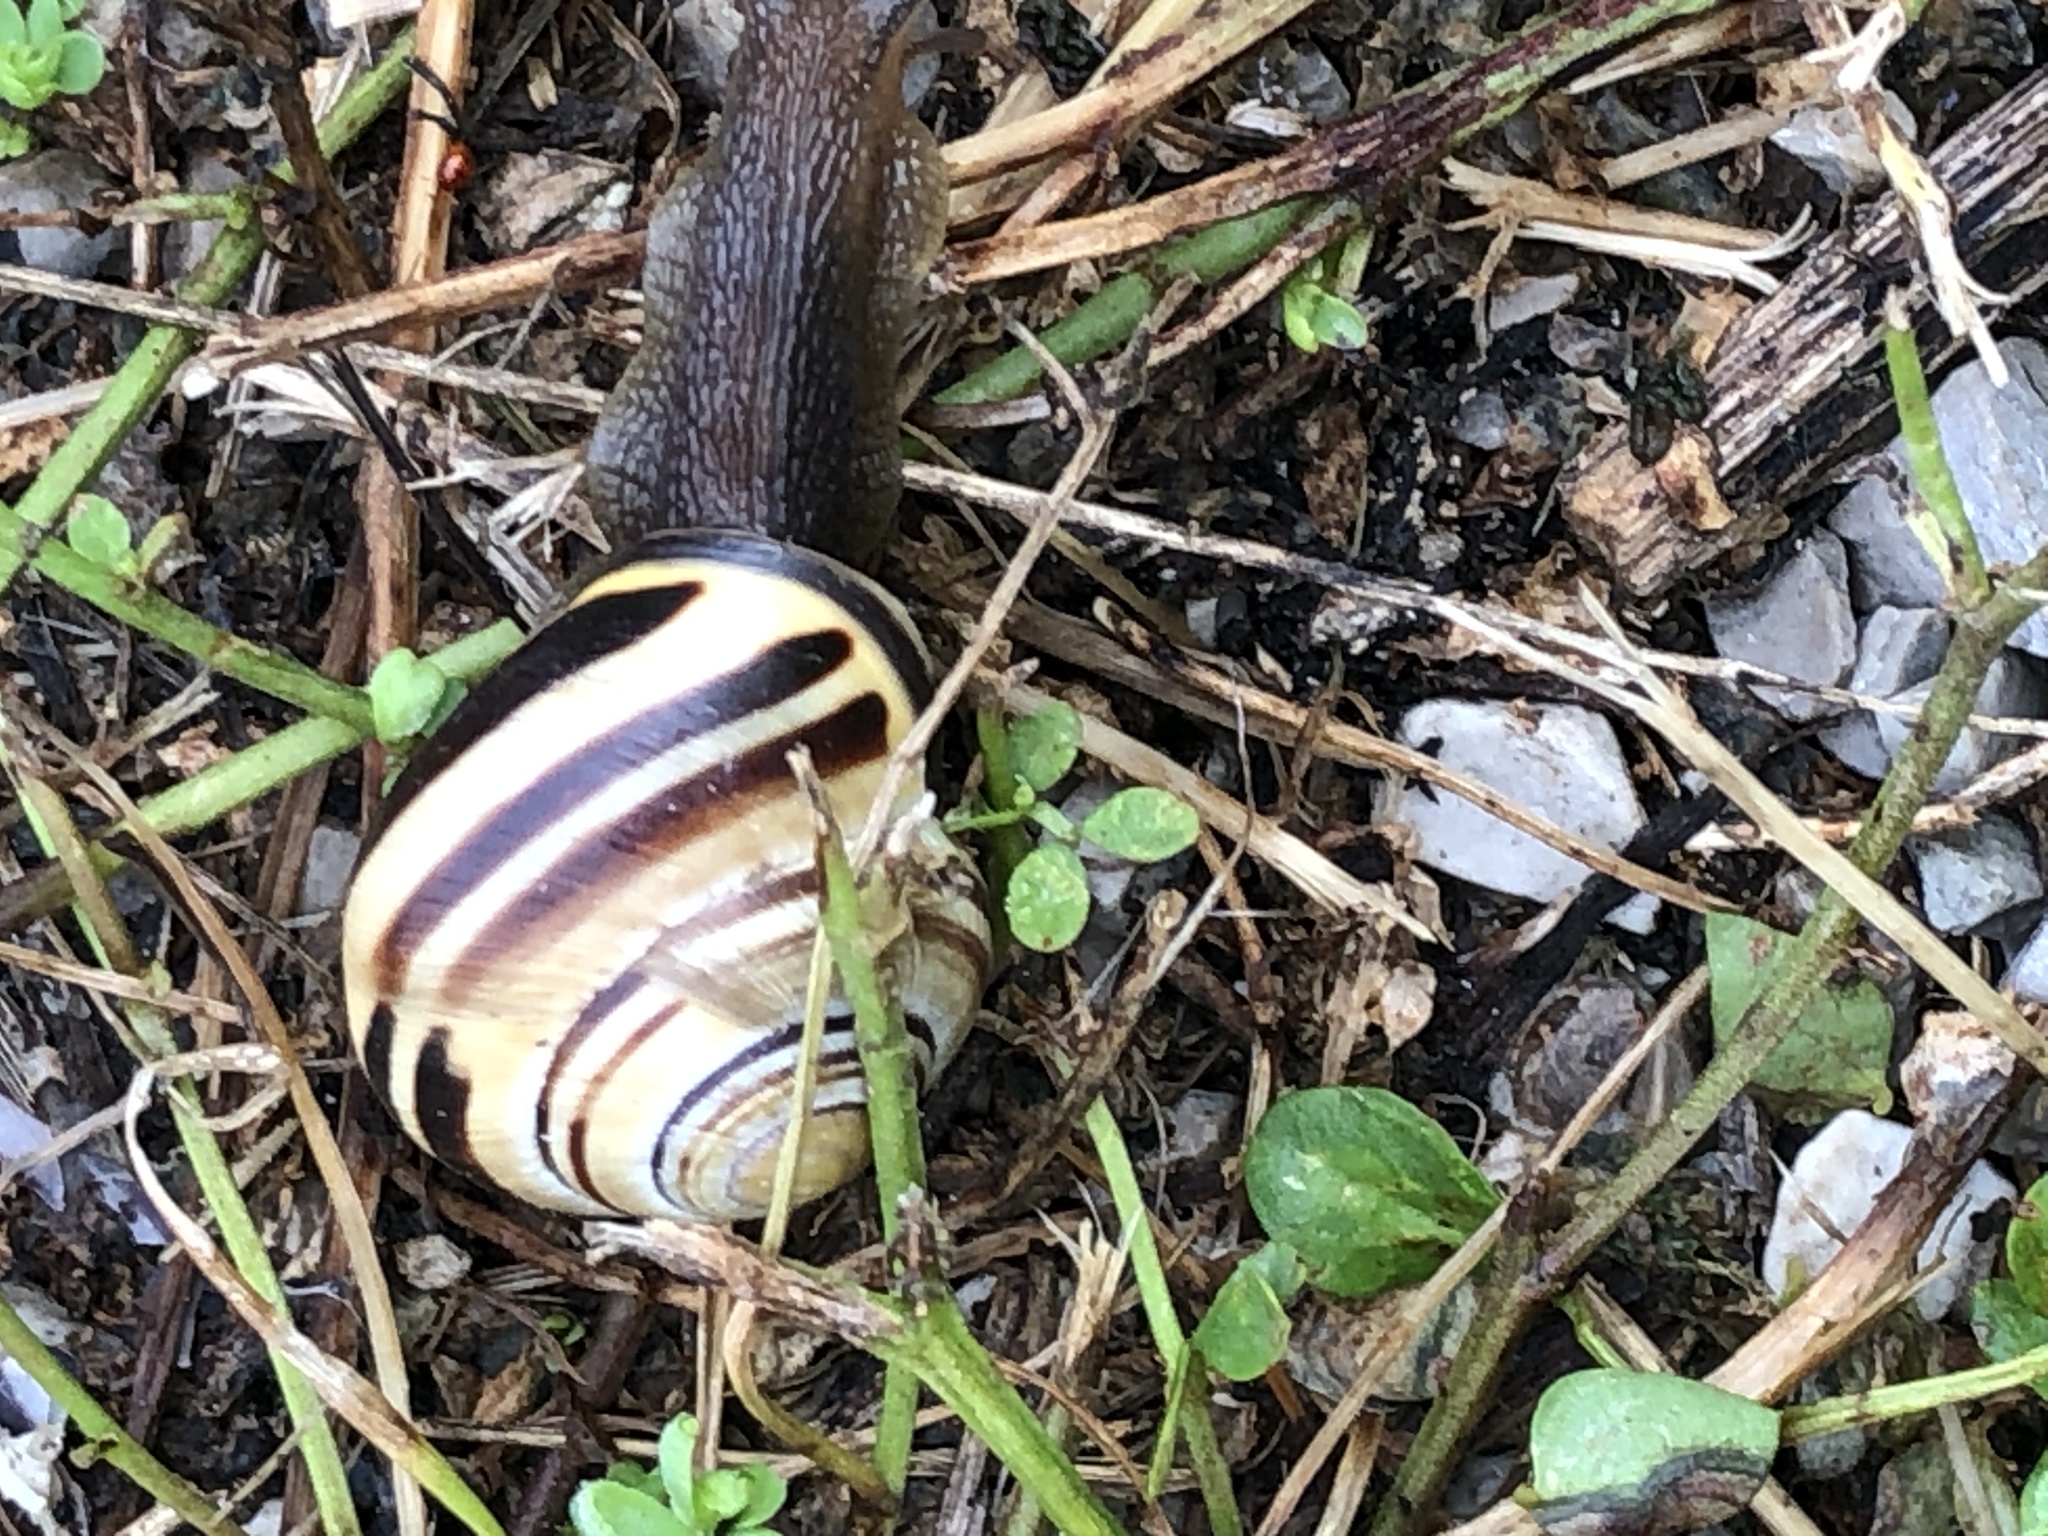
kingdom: Animalia
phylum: Mollusca
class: Gastropoda
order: Stylommatophora
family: Helicidae
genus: Cepaea
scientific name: Cepaea nemoralis
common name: Grovesnail
